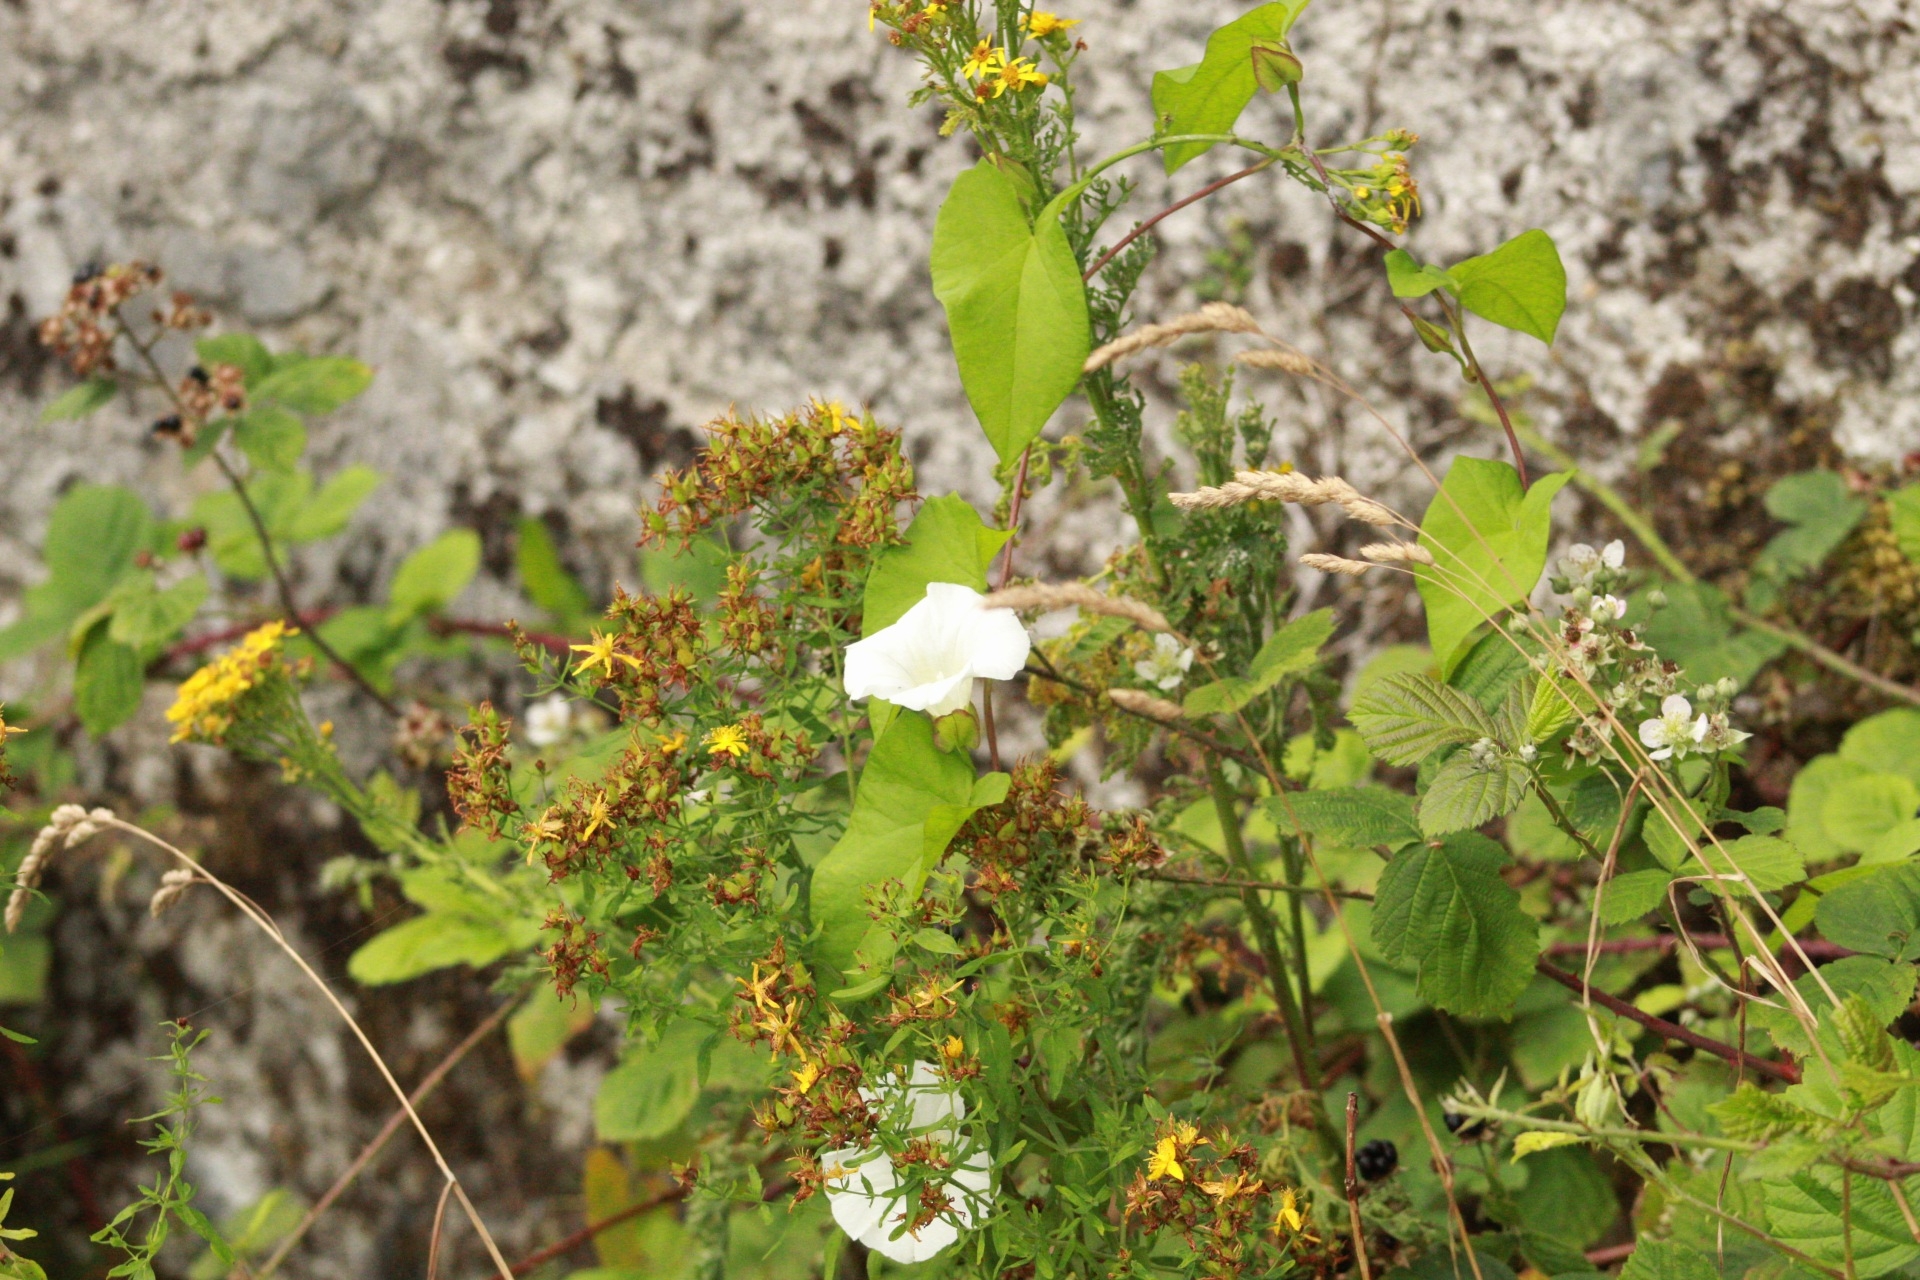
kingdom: Plantae
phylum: Tracheophyta
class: Magnoliopsida
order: Solanales
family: Convolvulaceae
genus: Calystegia
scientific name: Calystegia sepium
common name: Hedge bindweed
